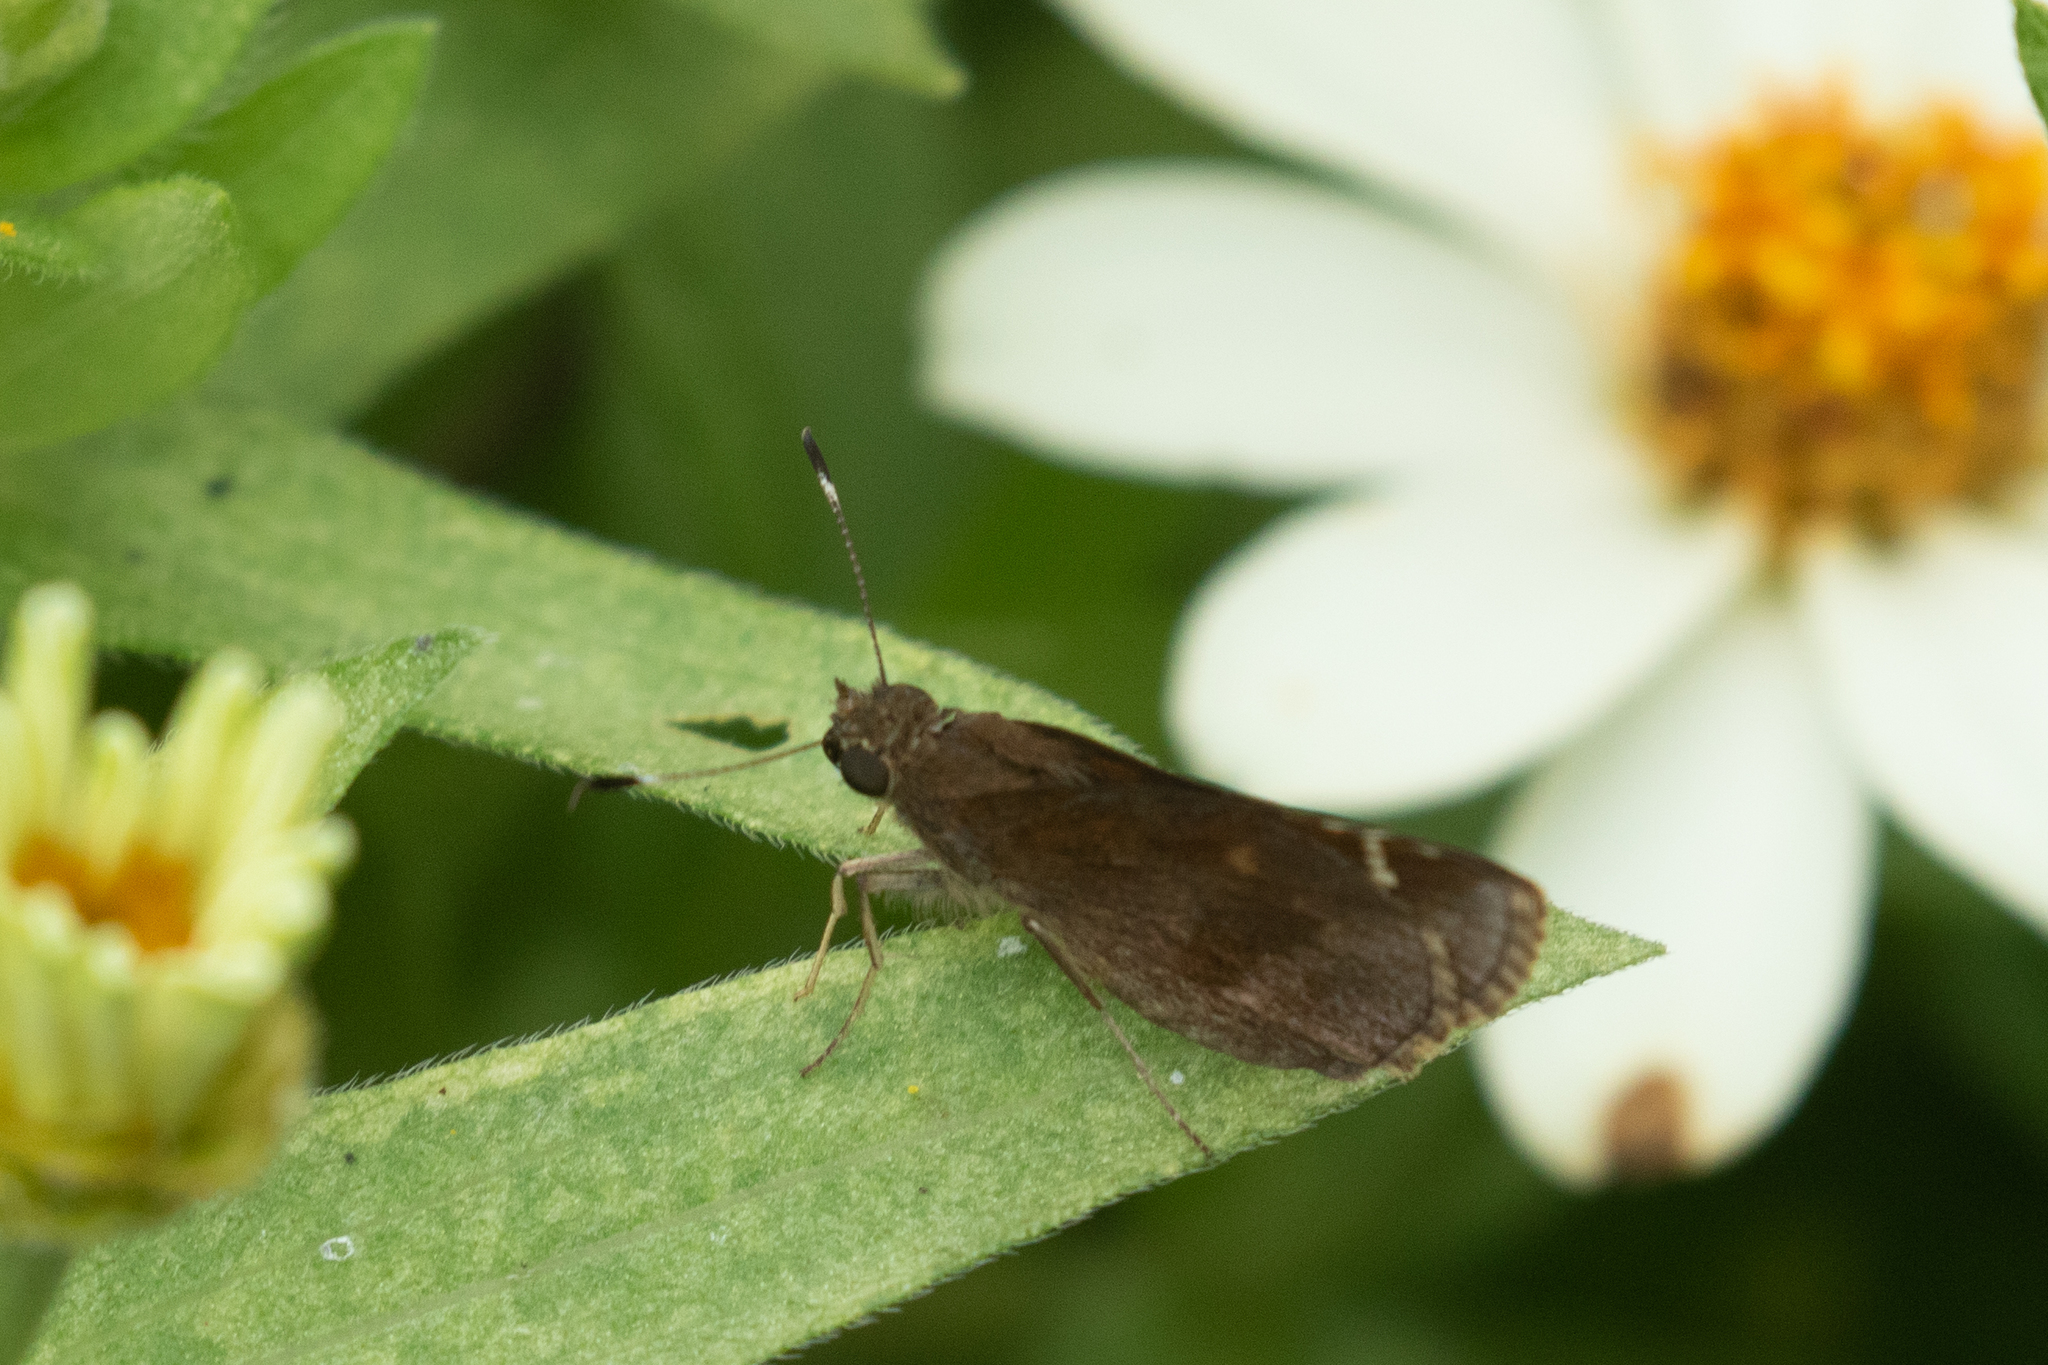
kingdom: Animalia
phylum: Arthropoda
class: Insecta
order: Lepidoptera
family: Hesperiidae
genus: Lerema
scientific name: Lerema accius
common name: Clouded skipper
